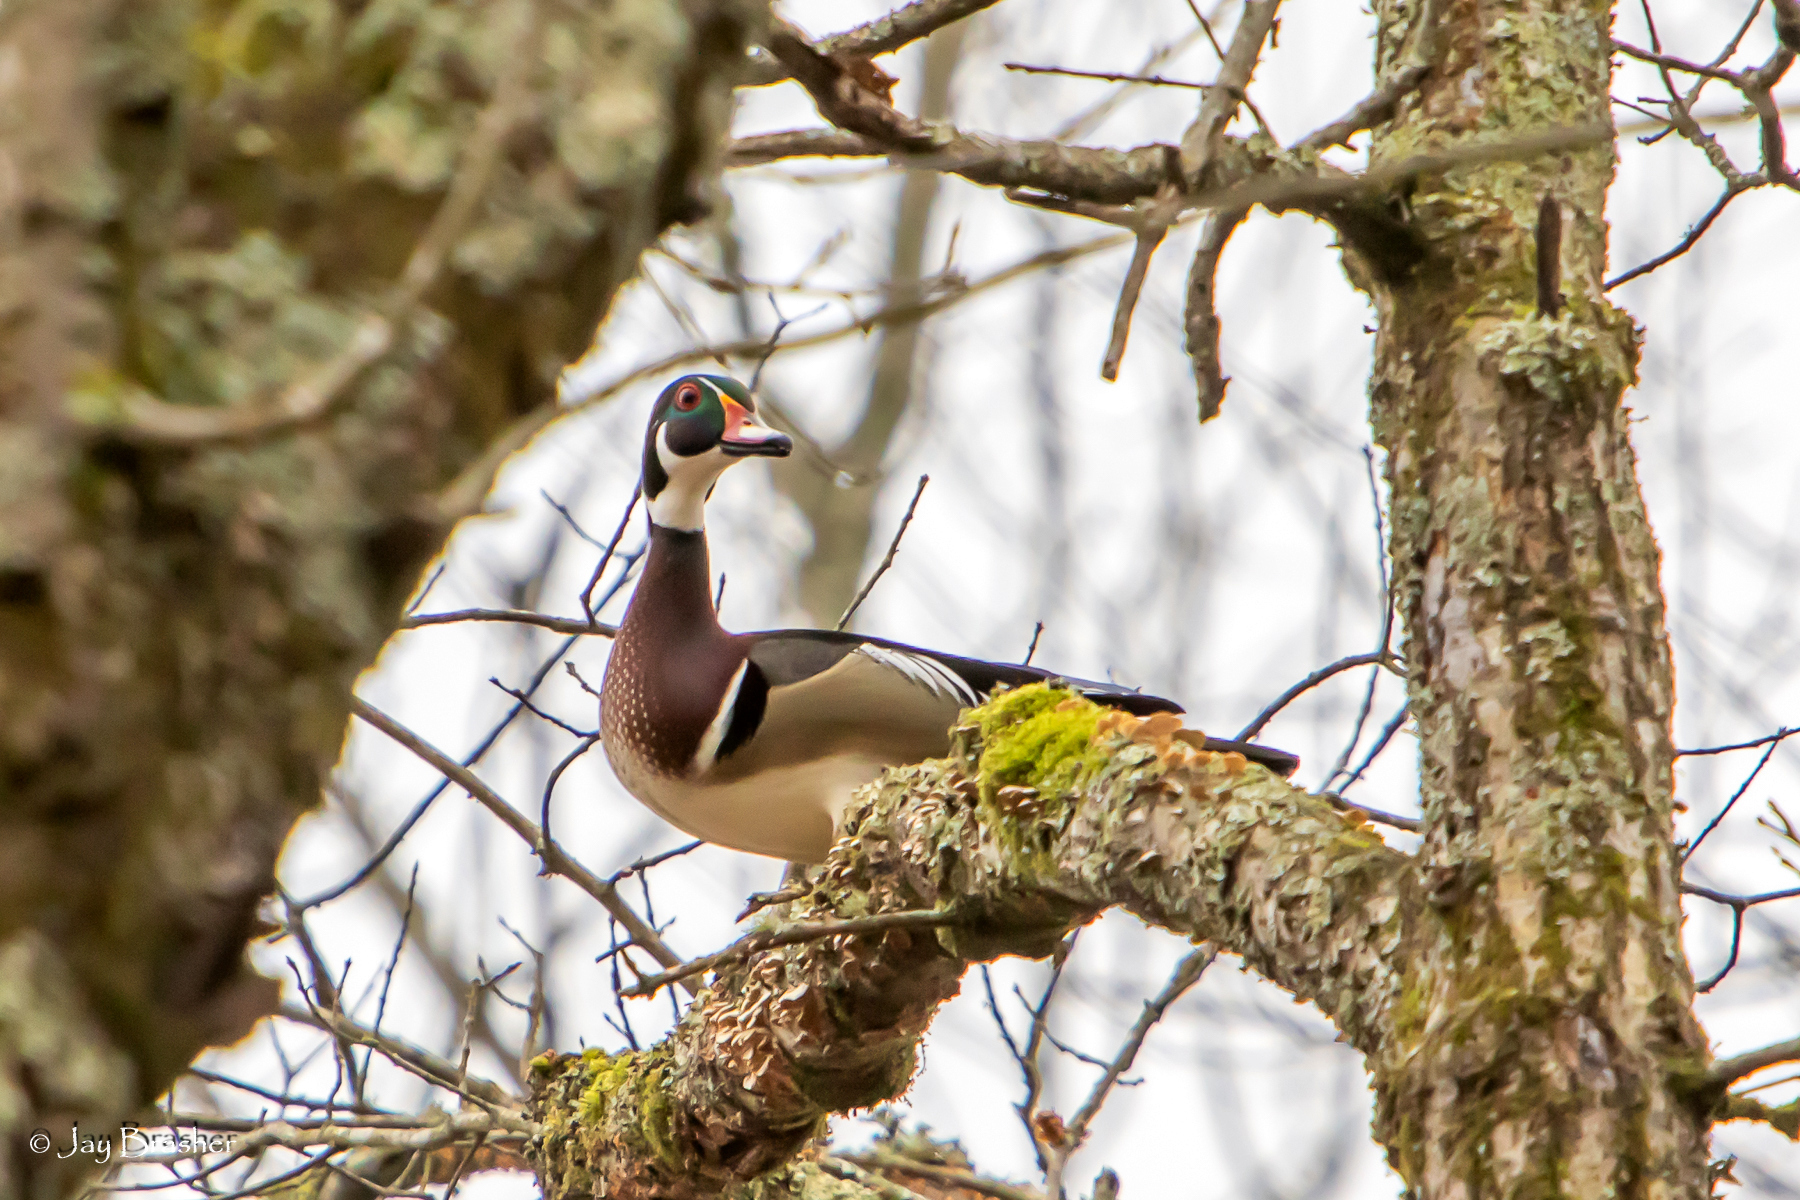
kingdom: Animalia
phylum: Chordata
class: Aves
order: Anseriformes
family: Anatidae
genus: Aix
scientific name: Aix sponsa
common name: Wood duck
